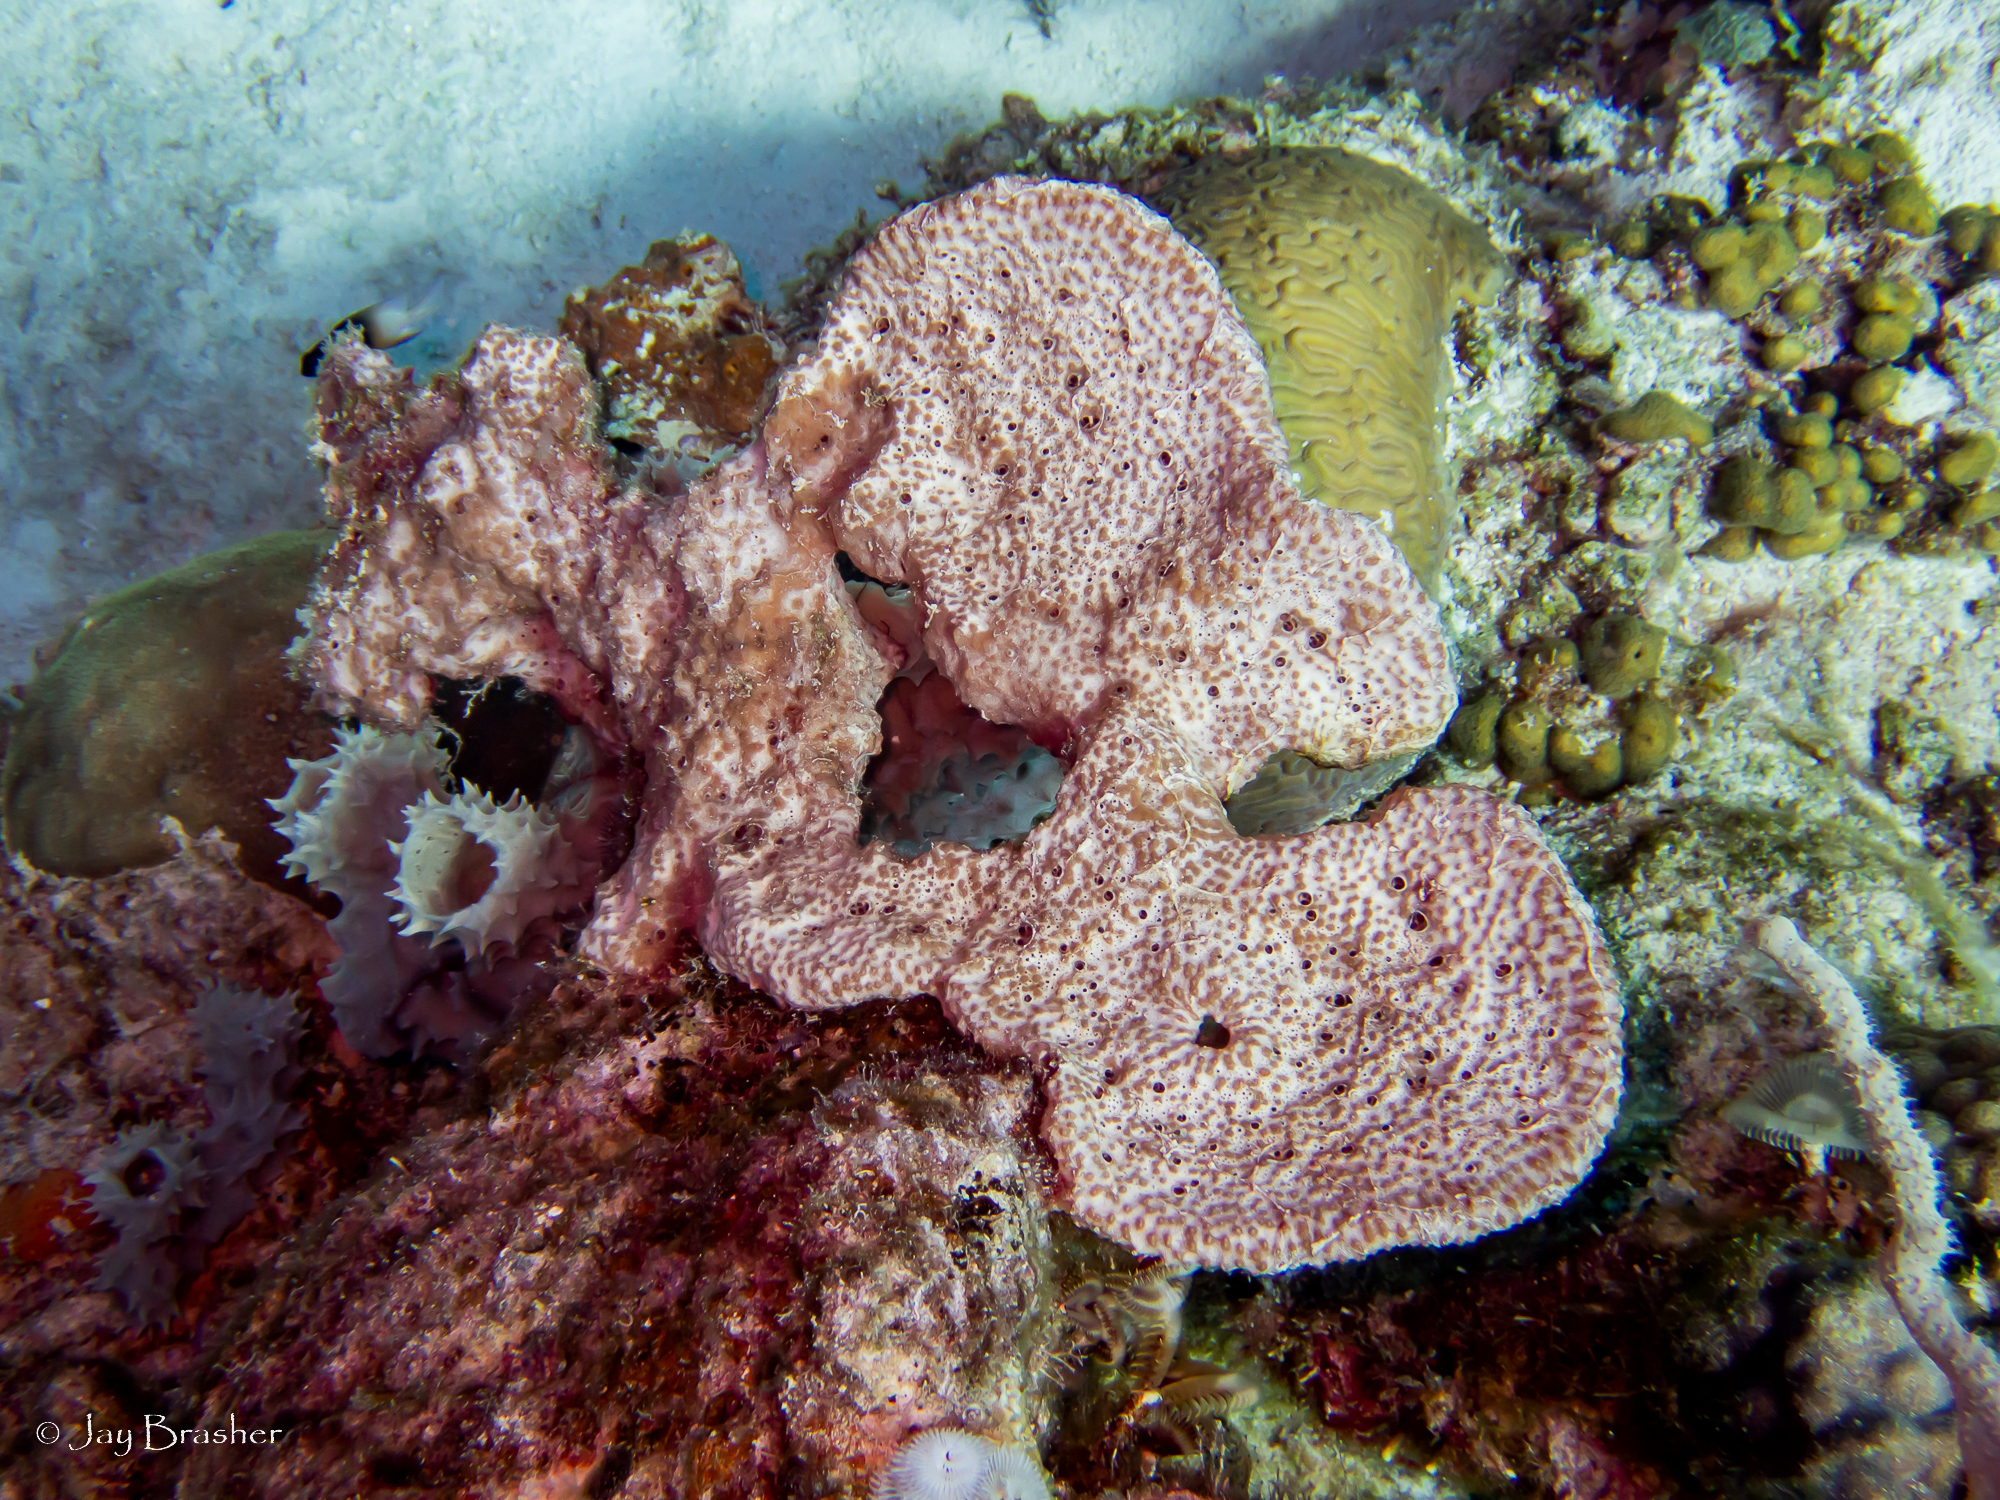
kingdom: Animalia
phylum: Cnidaria
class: Anthozoa
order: Scleractinia
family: Pocilloporidae
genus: Madracis
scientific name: Madracis decactis
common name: Ten-ray star coral
